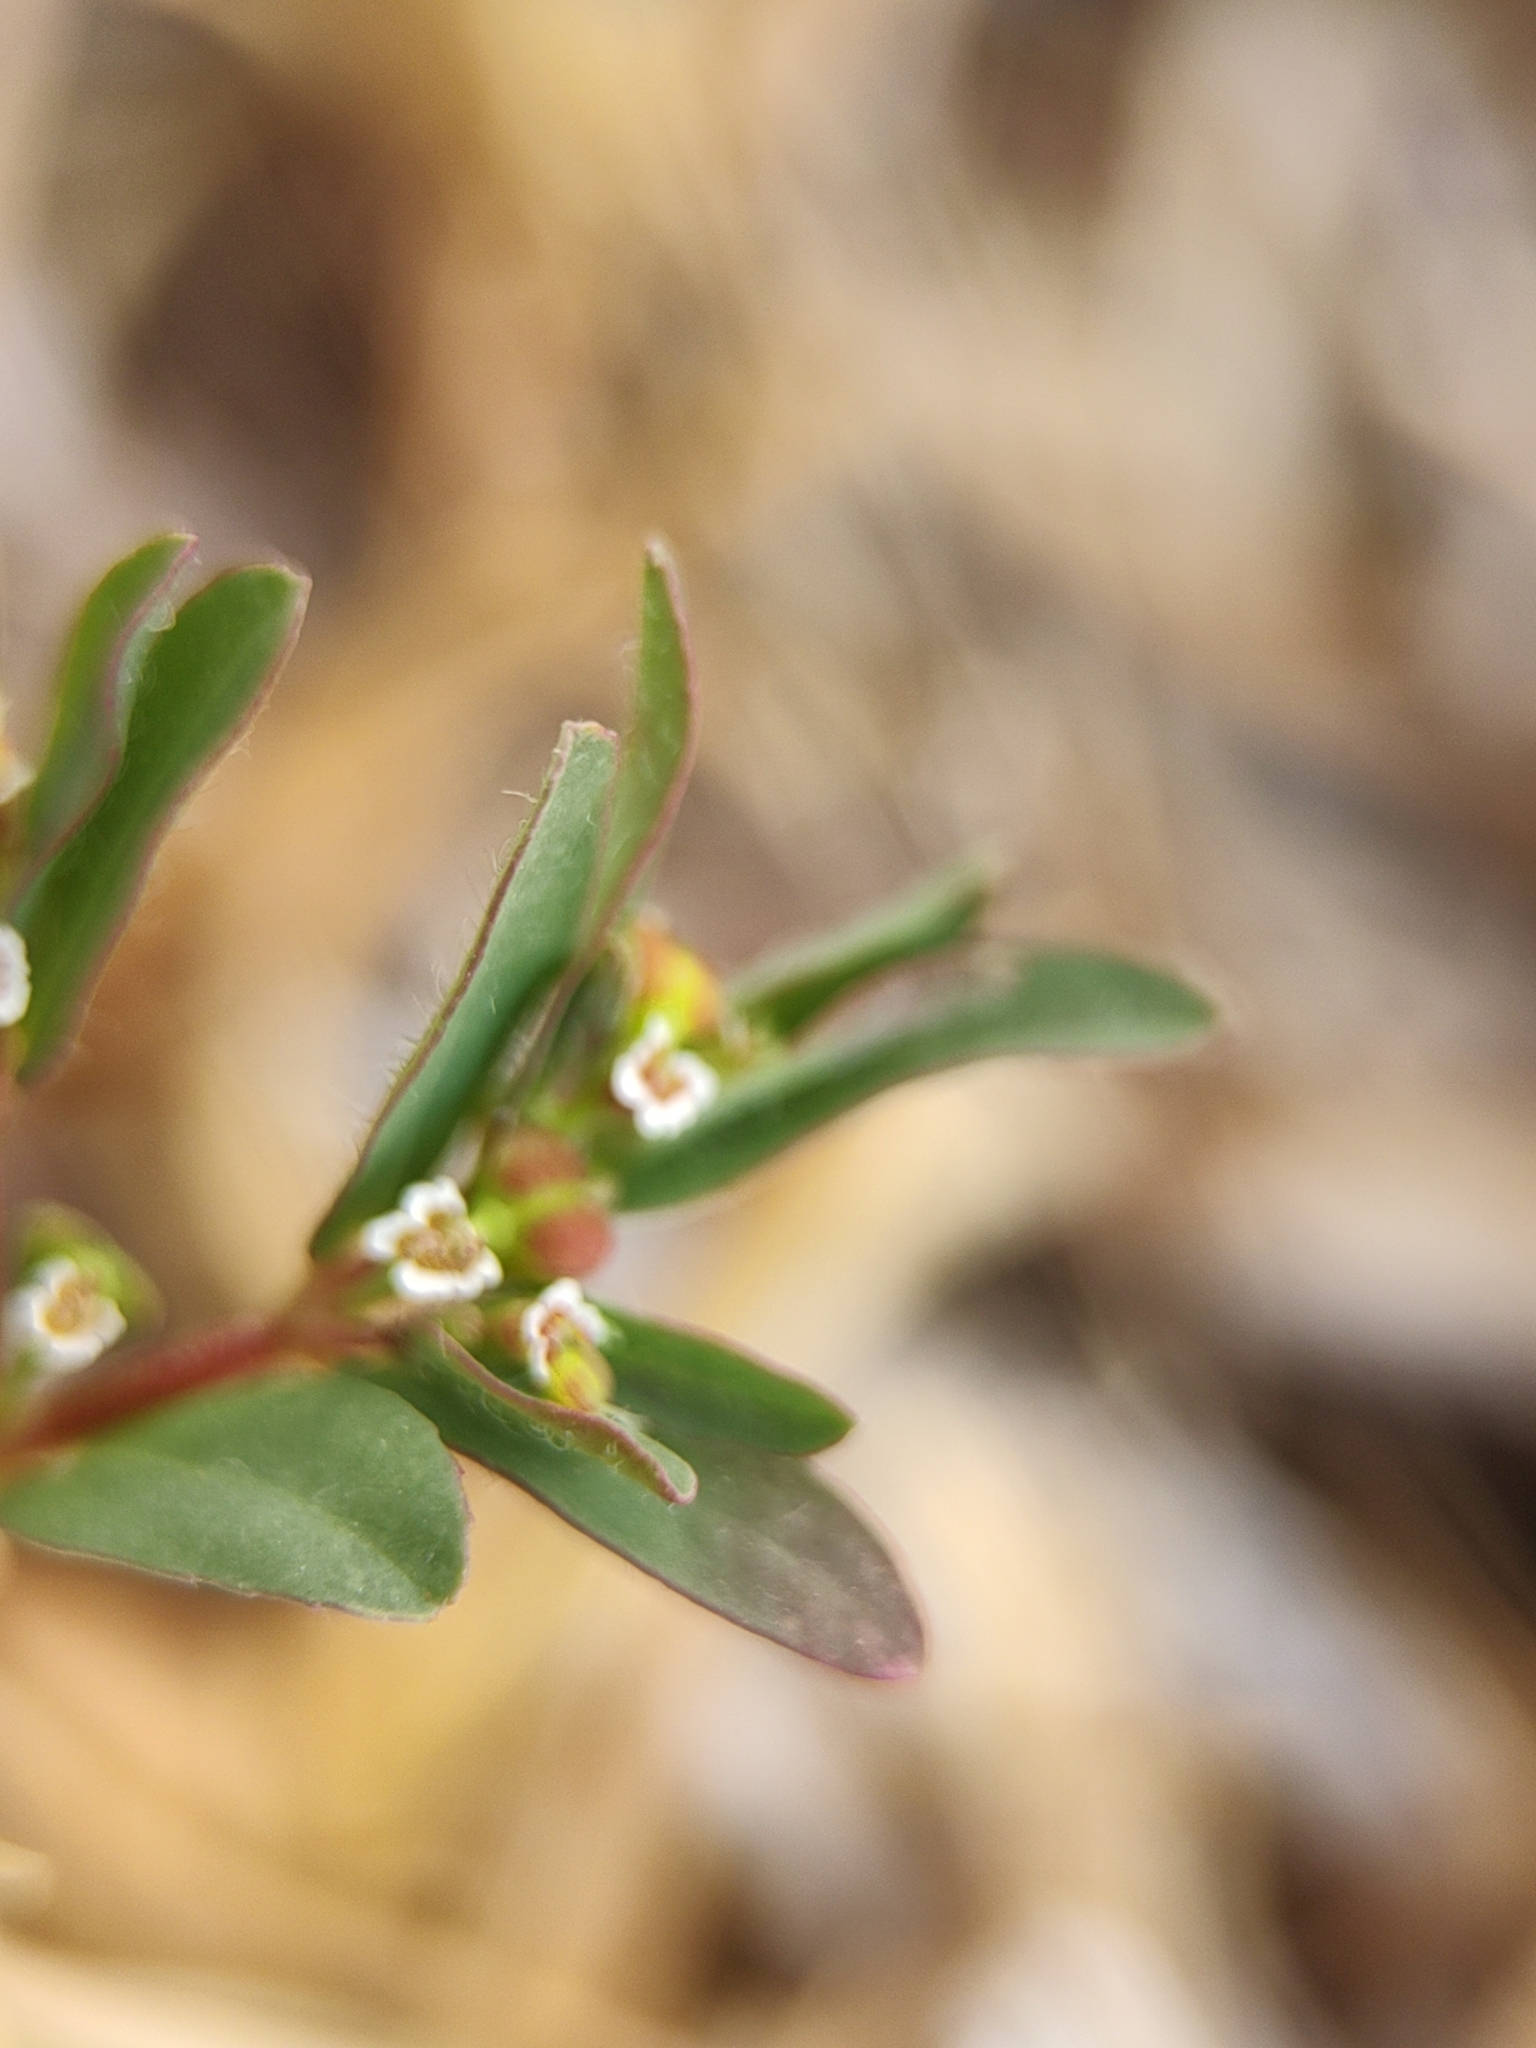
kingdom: Plantae
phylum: Tracheophyta
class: Magnoliopsida
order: Malpighiales
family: Euphorbiaceae
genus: Euphorbia
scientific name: Euphorbia nutans
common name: Eyebane
